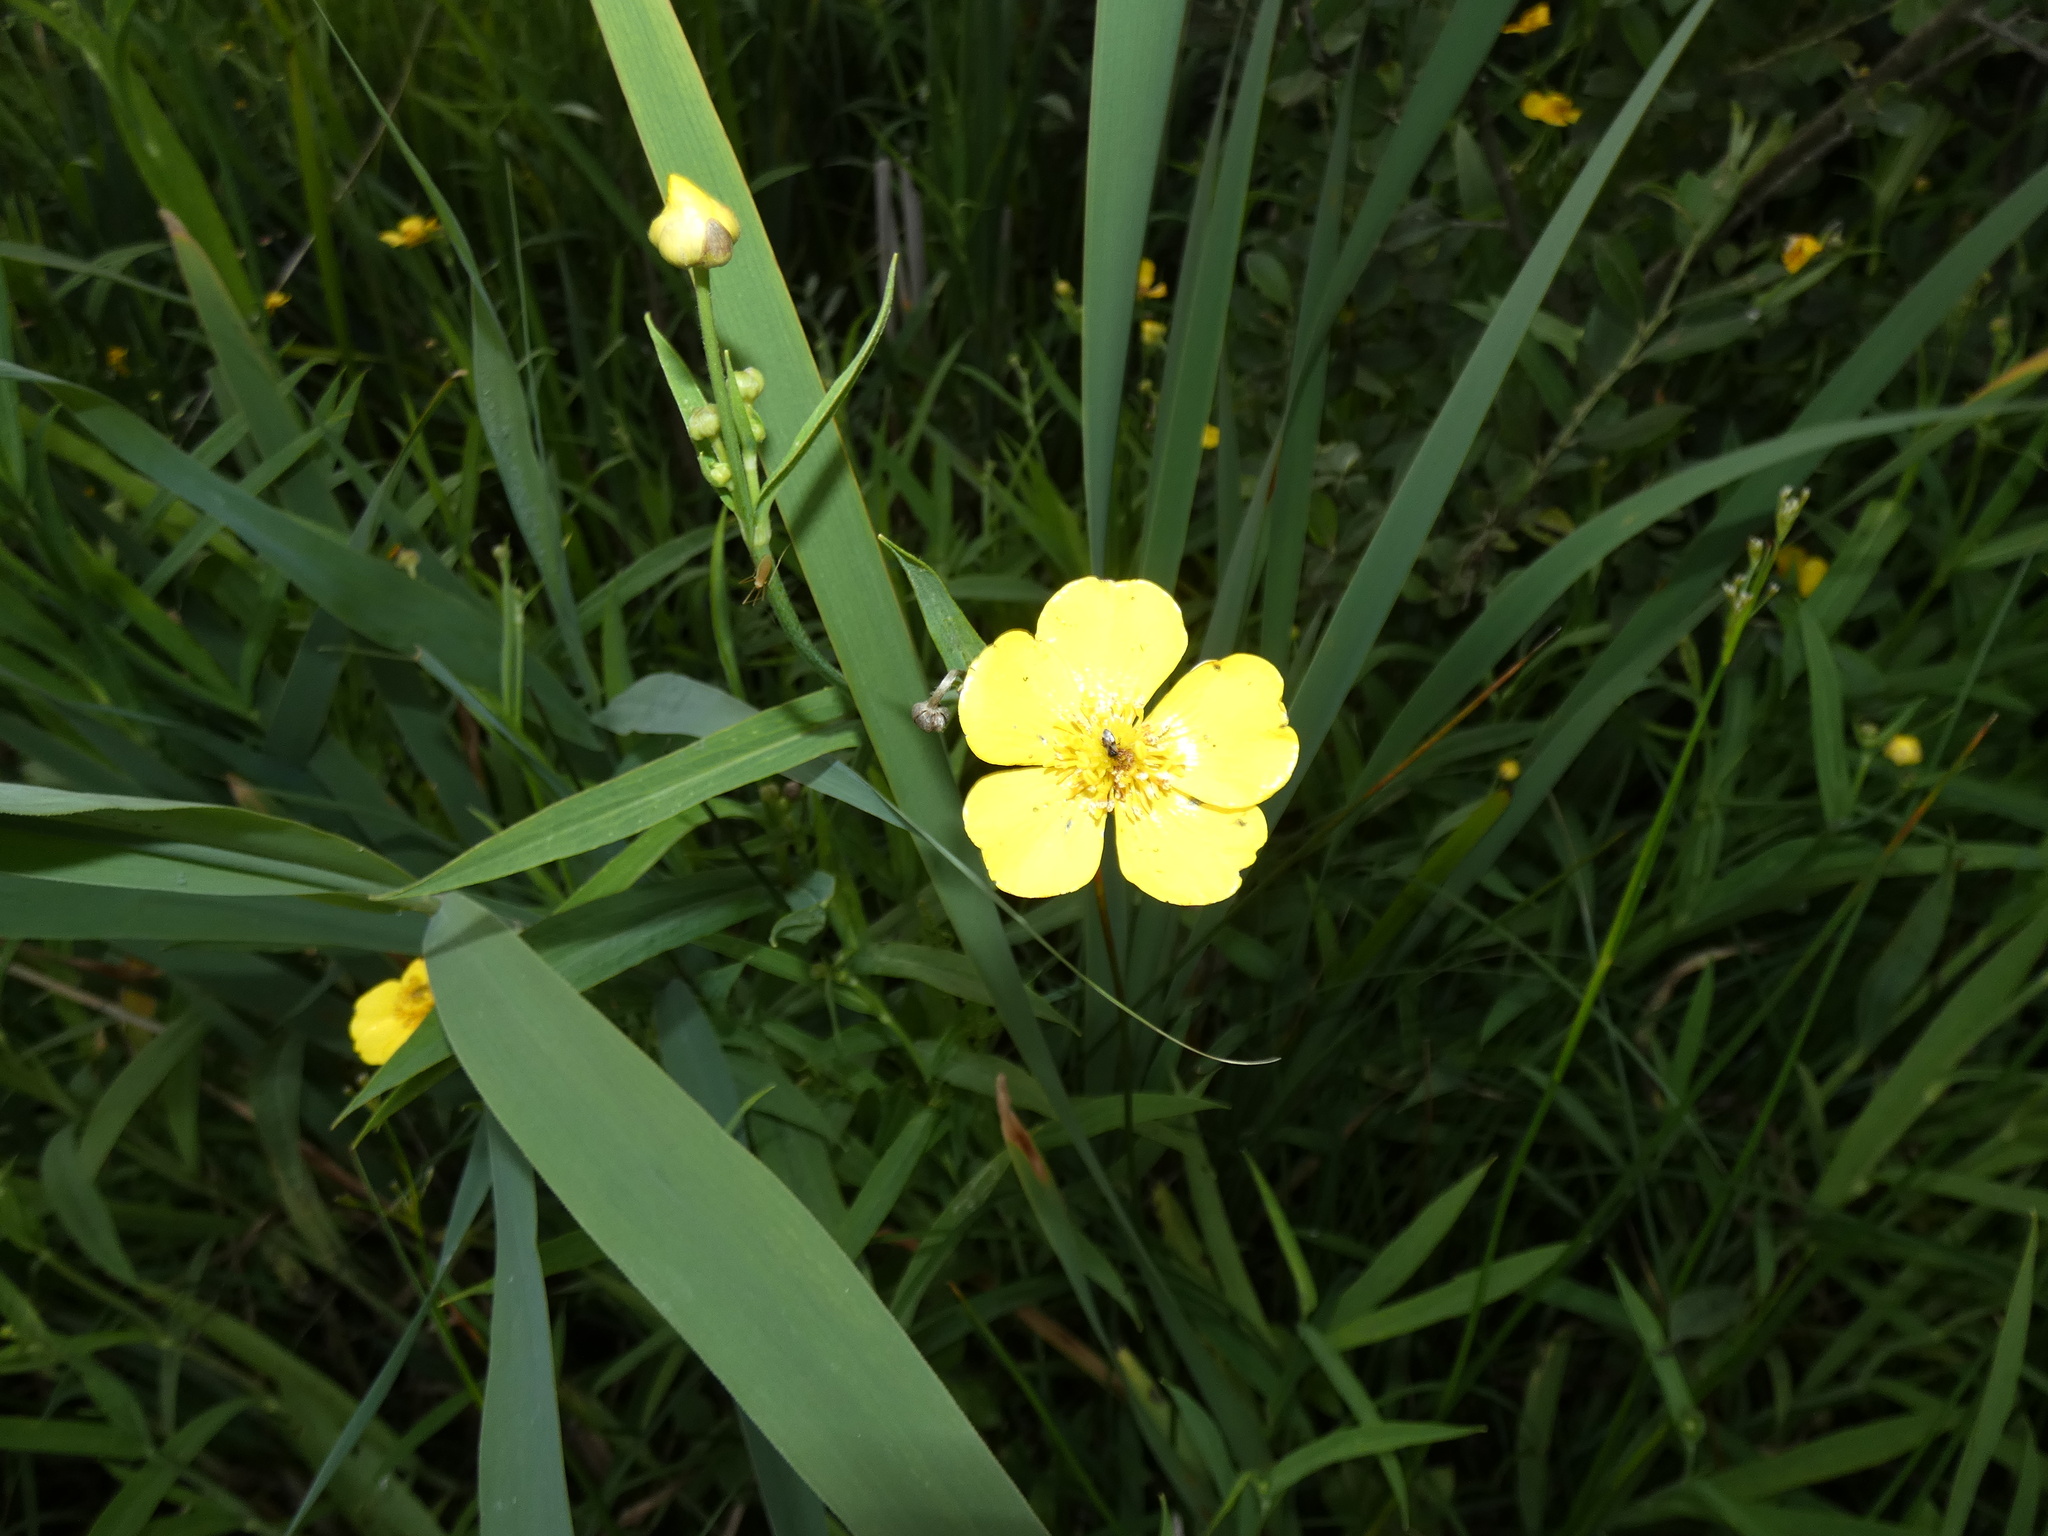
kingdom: Plantae
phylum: Tracheophyta
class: Magnoliopsida
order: Ranunculales
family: Ranunculaceae
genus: Ranunculus
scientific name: Ranunculus lingua
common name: Greater spearwort
